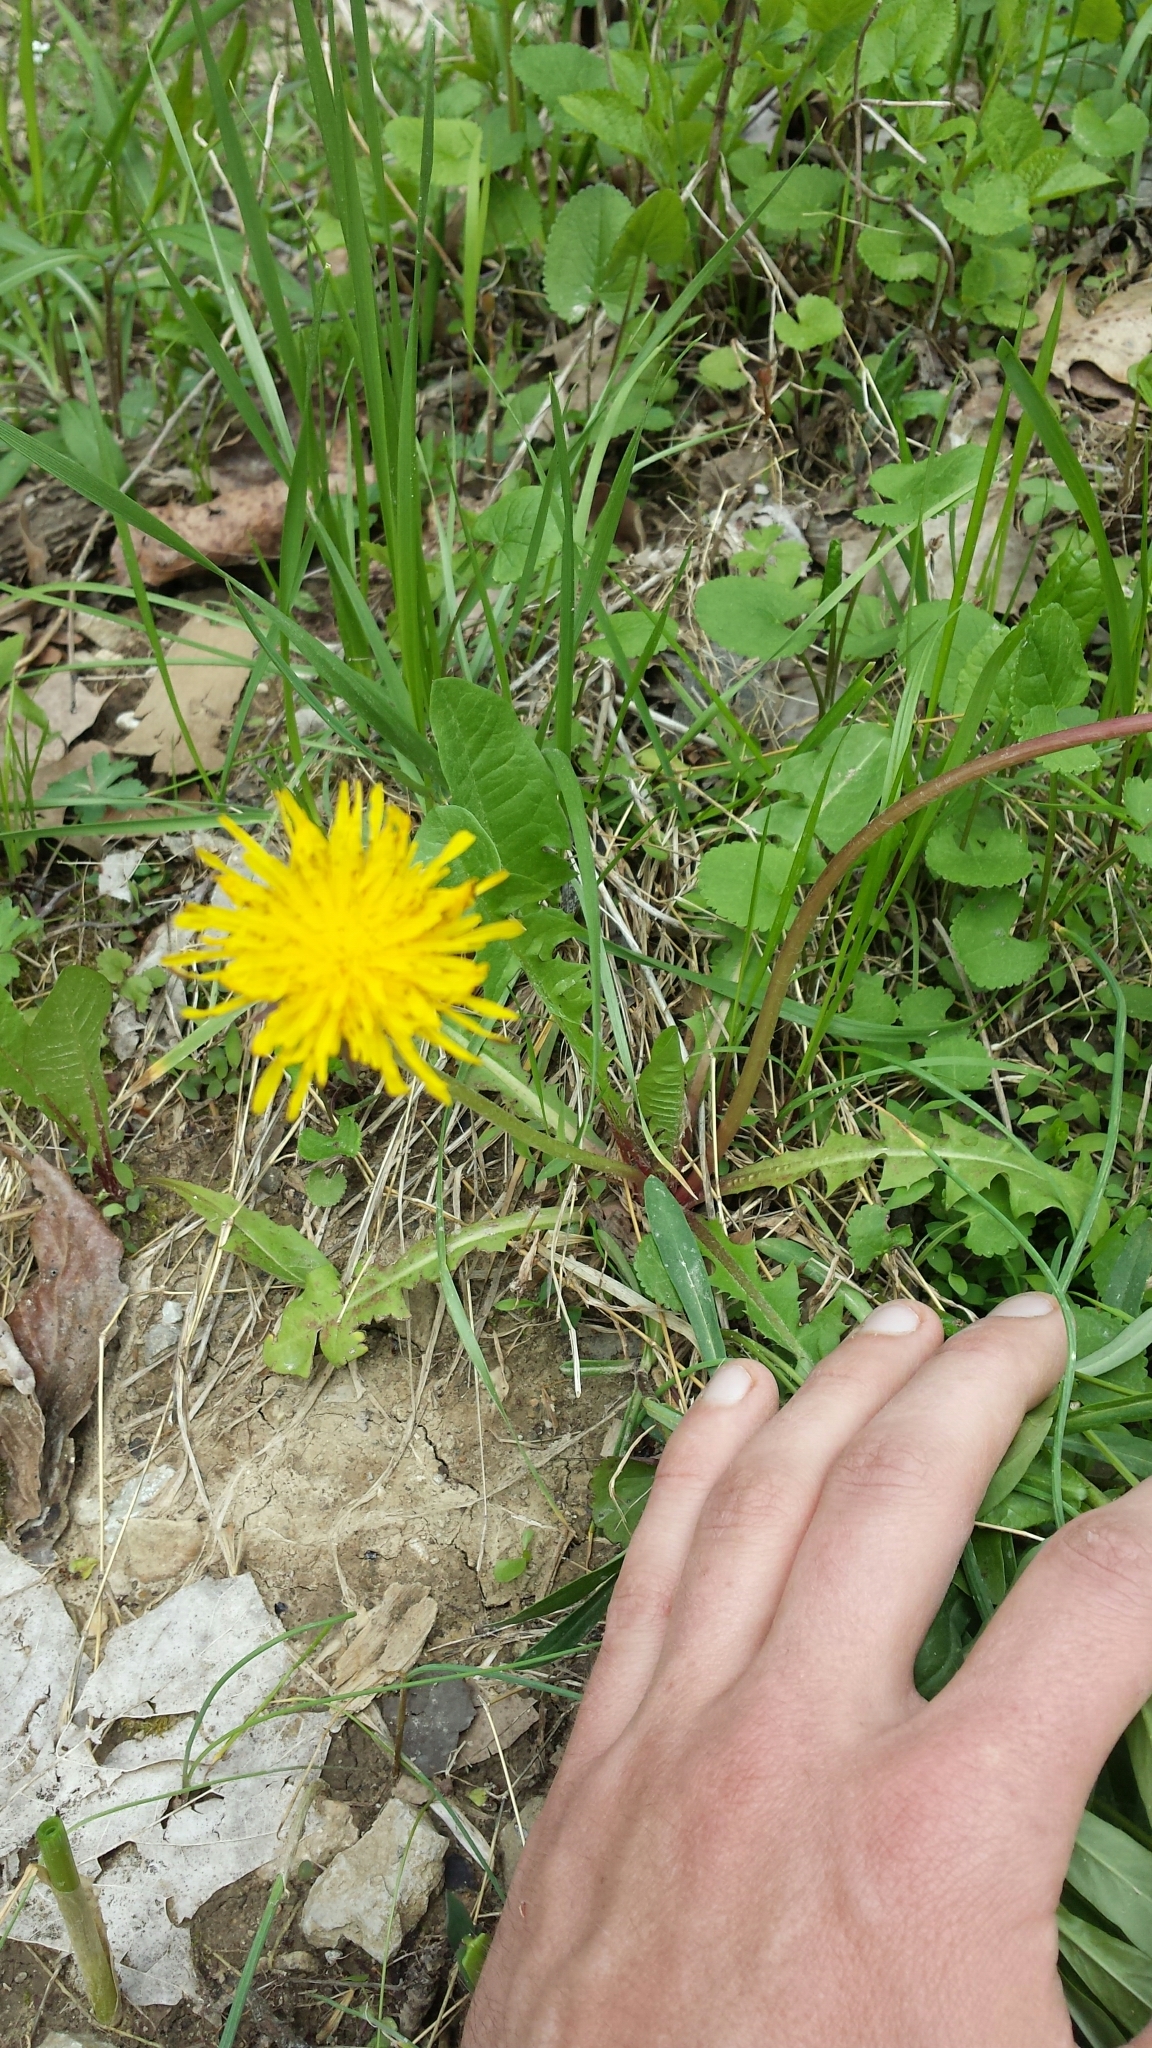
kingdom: Plantae
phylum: Tracheophyta
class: Magnoliopsida
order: Asterales
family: Asteraceae
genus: Taraxacum
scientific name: Taraxacum officinale
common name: Common dandelion
